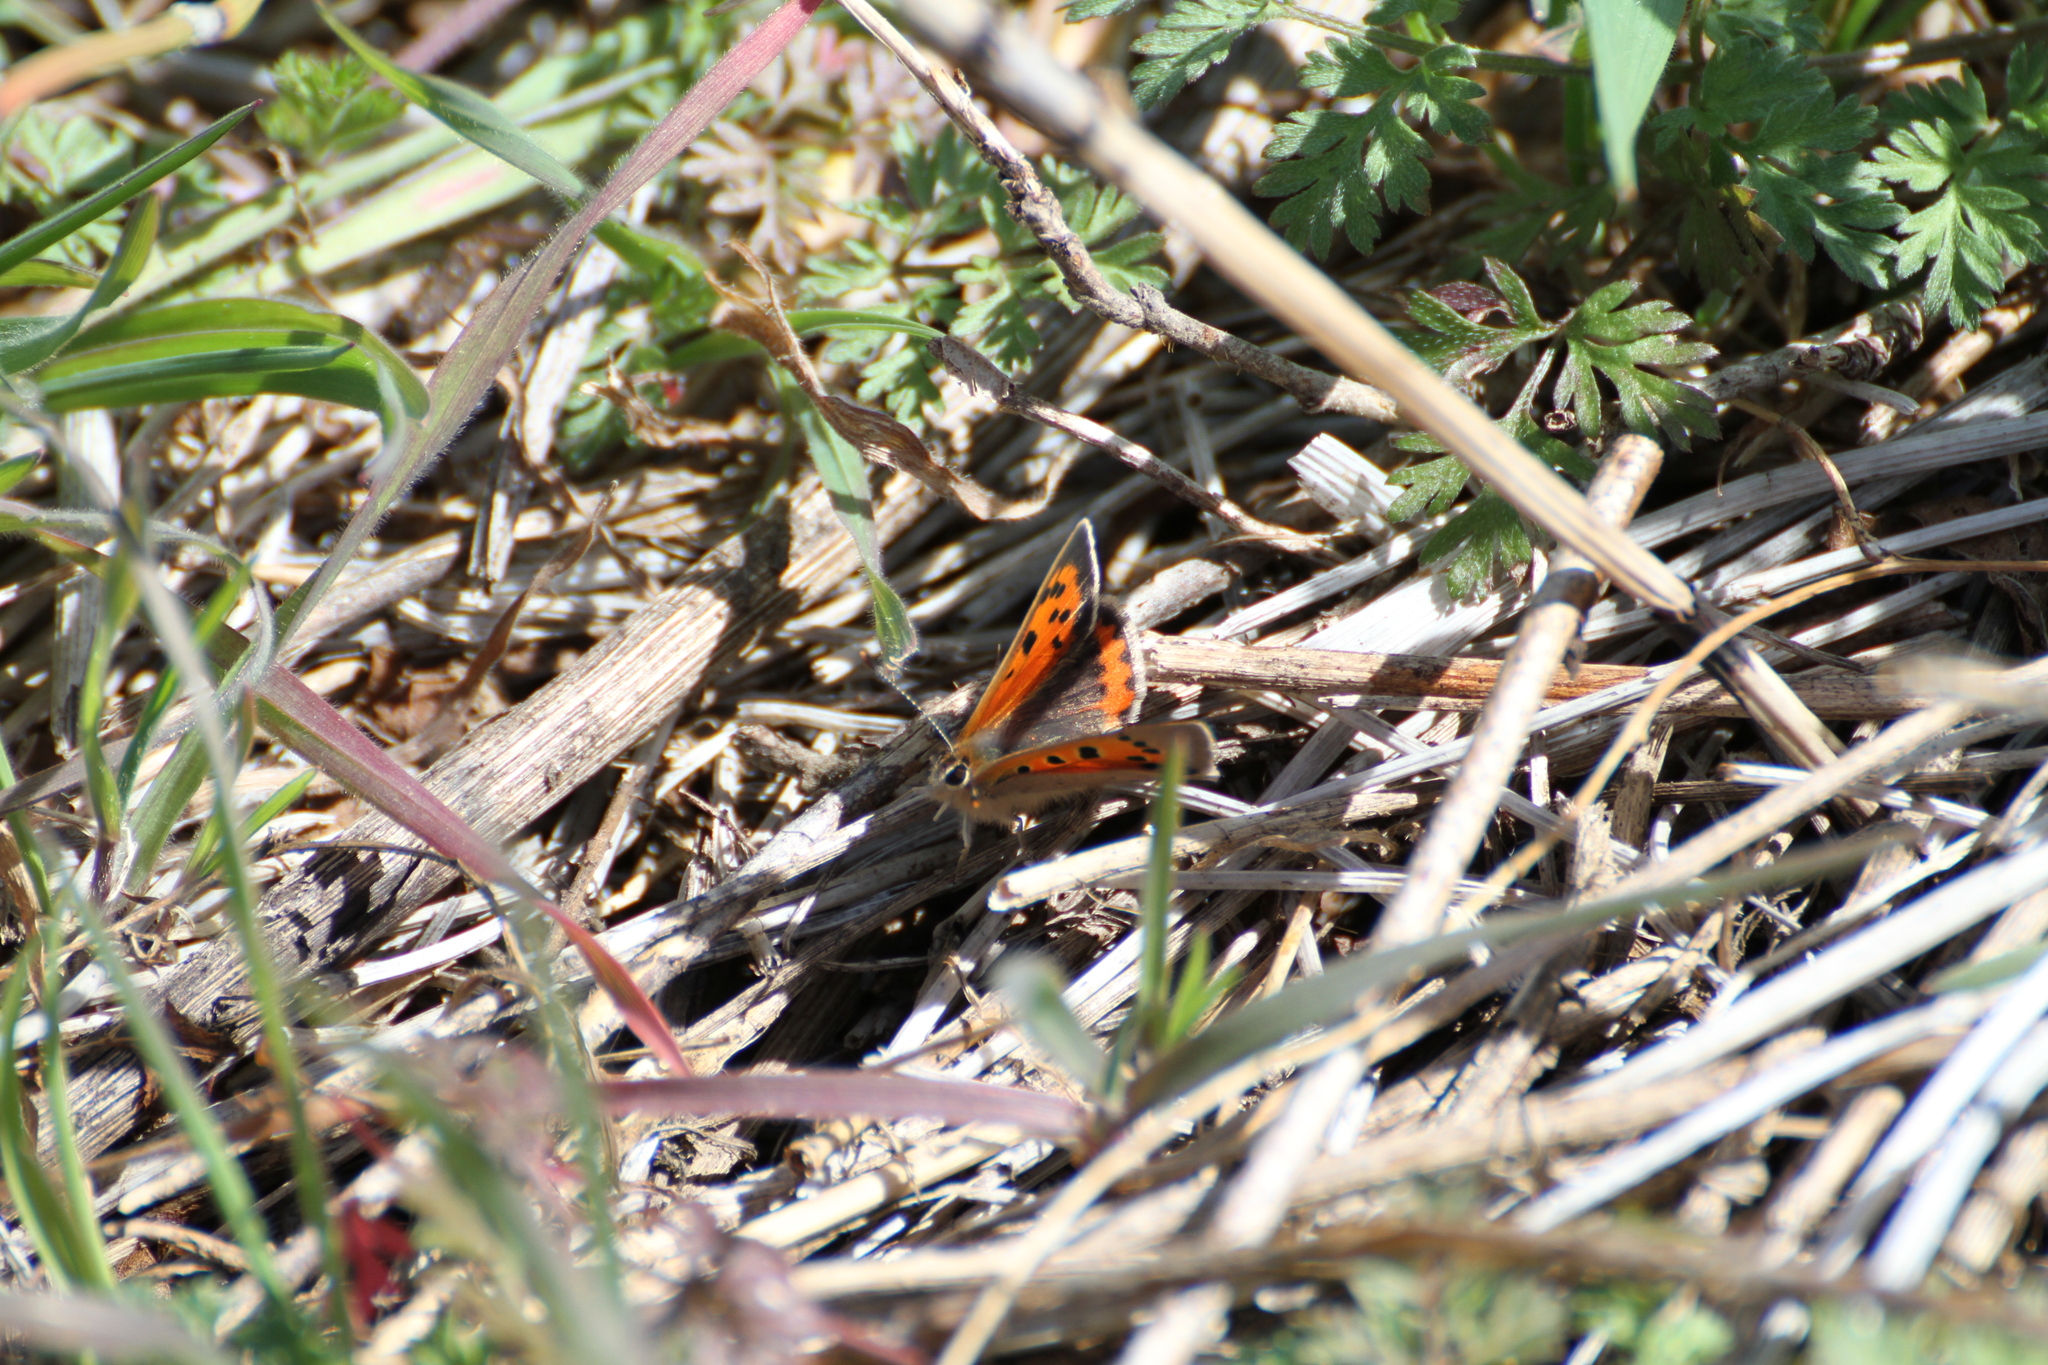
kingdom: Animalia
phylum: Arthropoda
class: Insecta
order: Lepidoptera
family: Lycaenidae
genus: Lycaena
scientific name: Lycaena phlaeas
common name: Small copper
